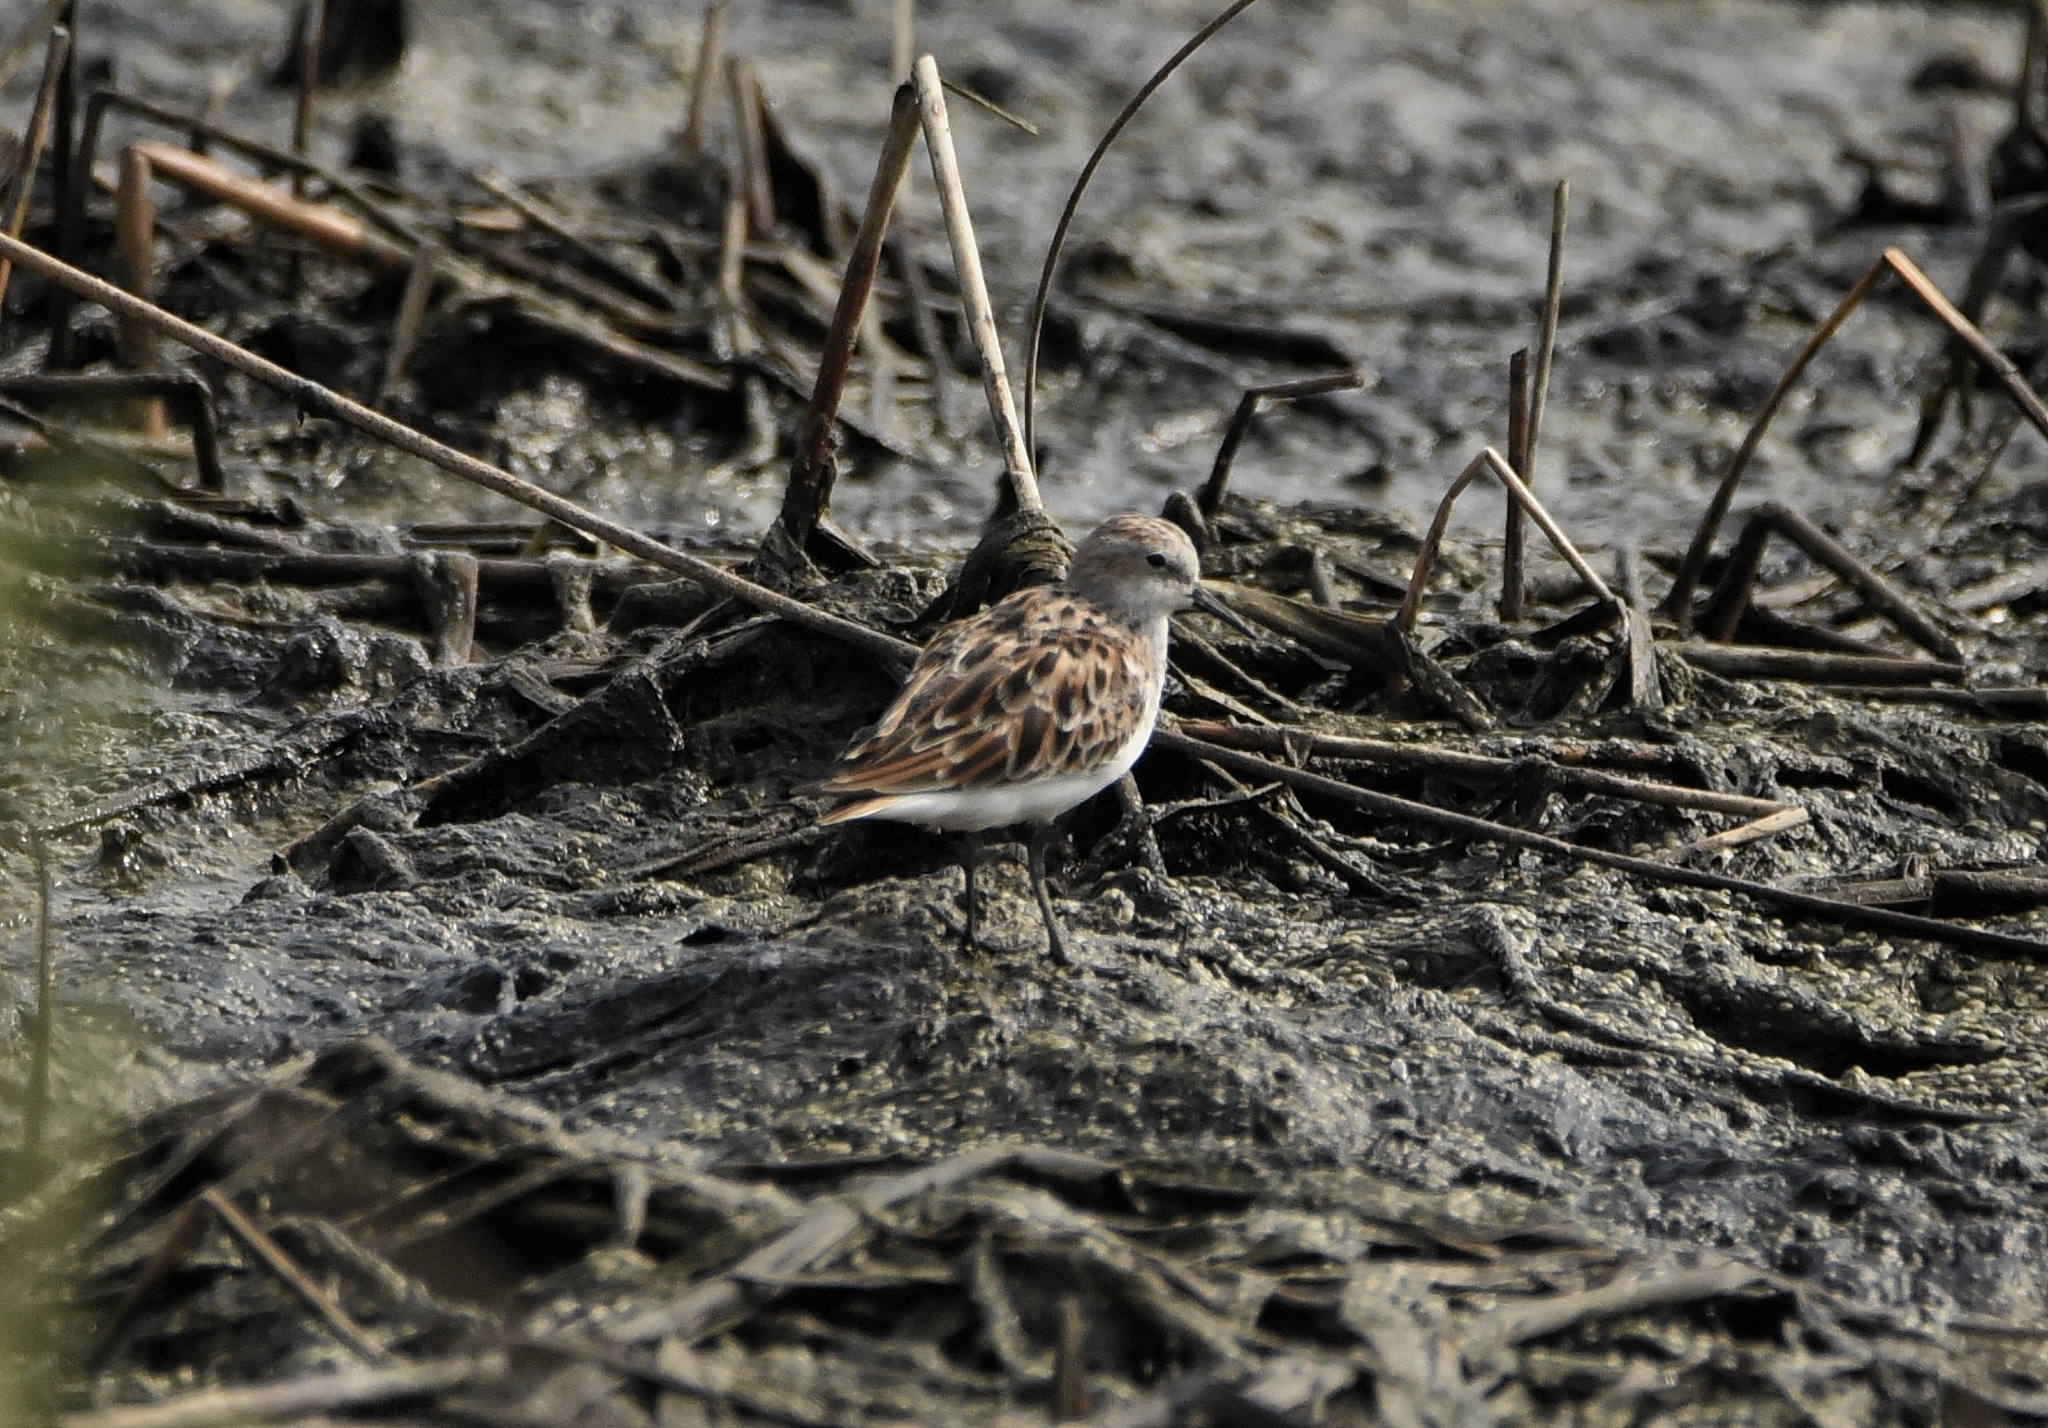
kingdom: Animalia
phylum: Chordata
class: Aves
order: Charadriiformes
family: Scolopacidae
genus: Calidris
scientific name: Calidris minuta
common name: Little stint
